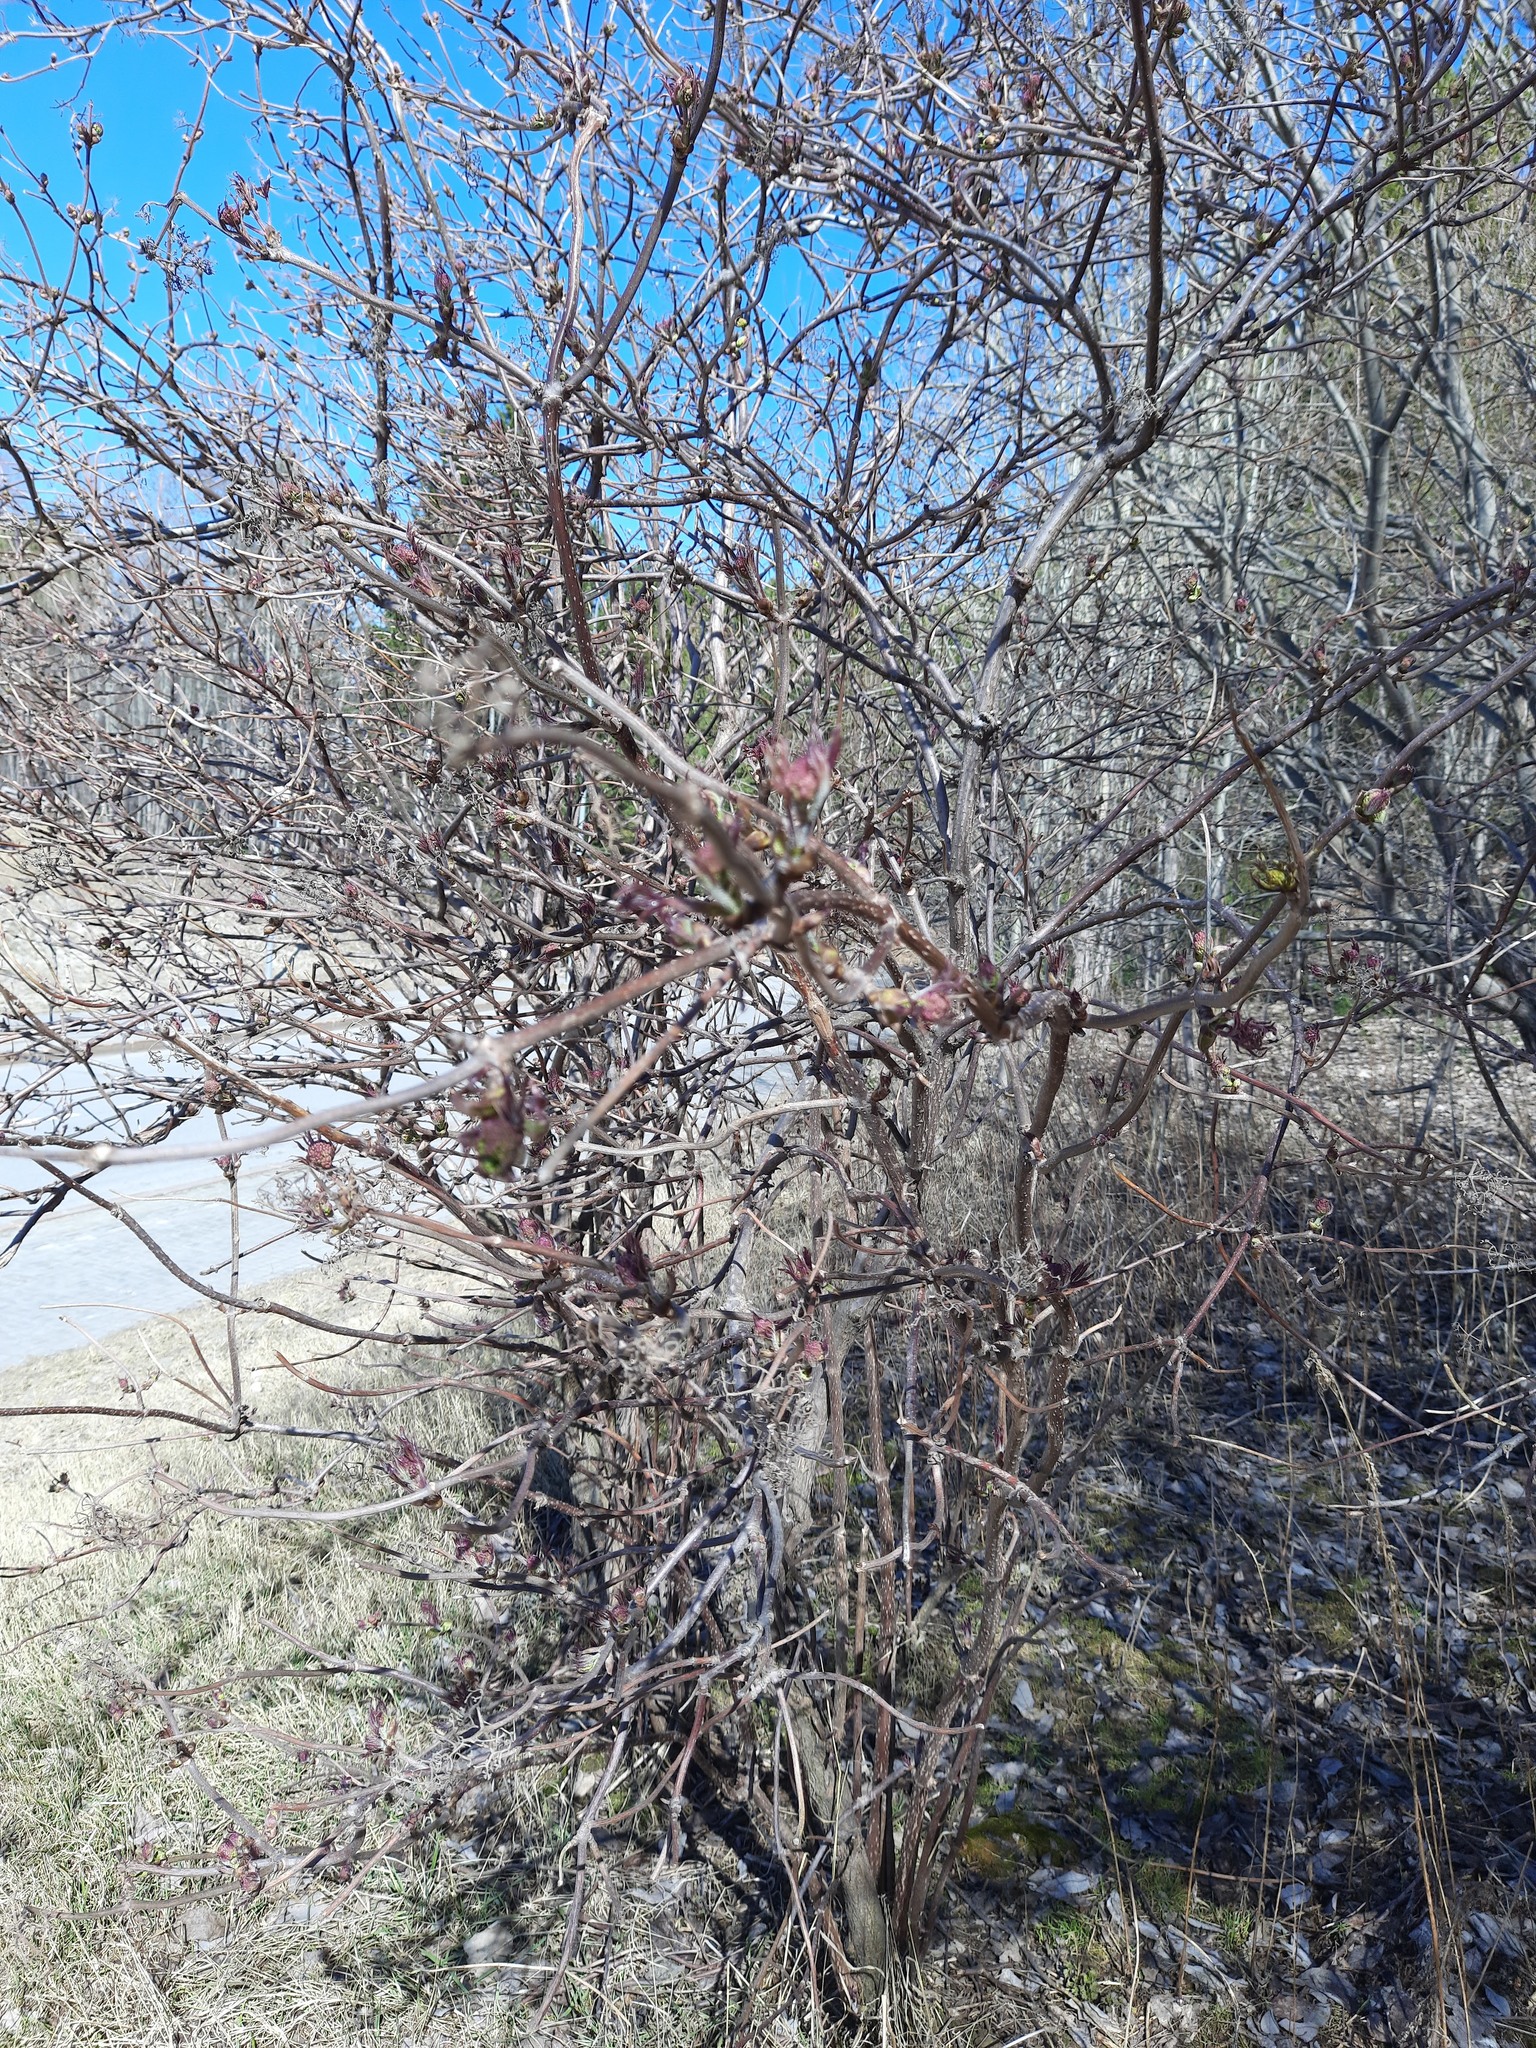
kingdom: Plantae
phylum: Tracheophyta
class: Magnoliopsida
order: Dipsacales
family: Viburnaceae
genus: Sambucus
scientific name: Sambucus sibirica
